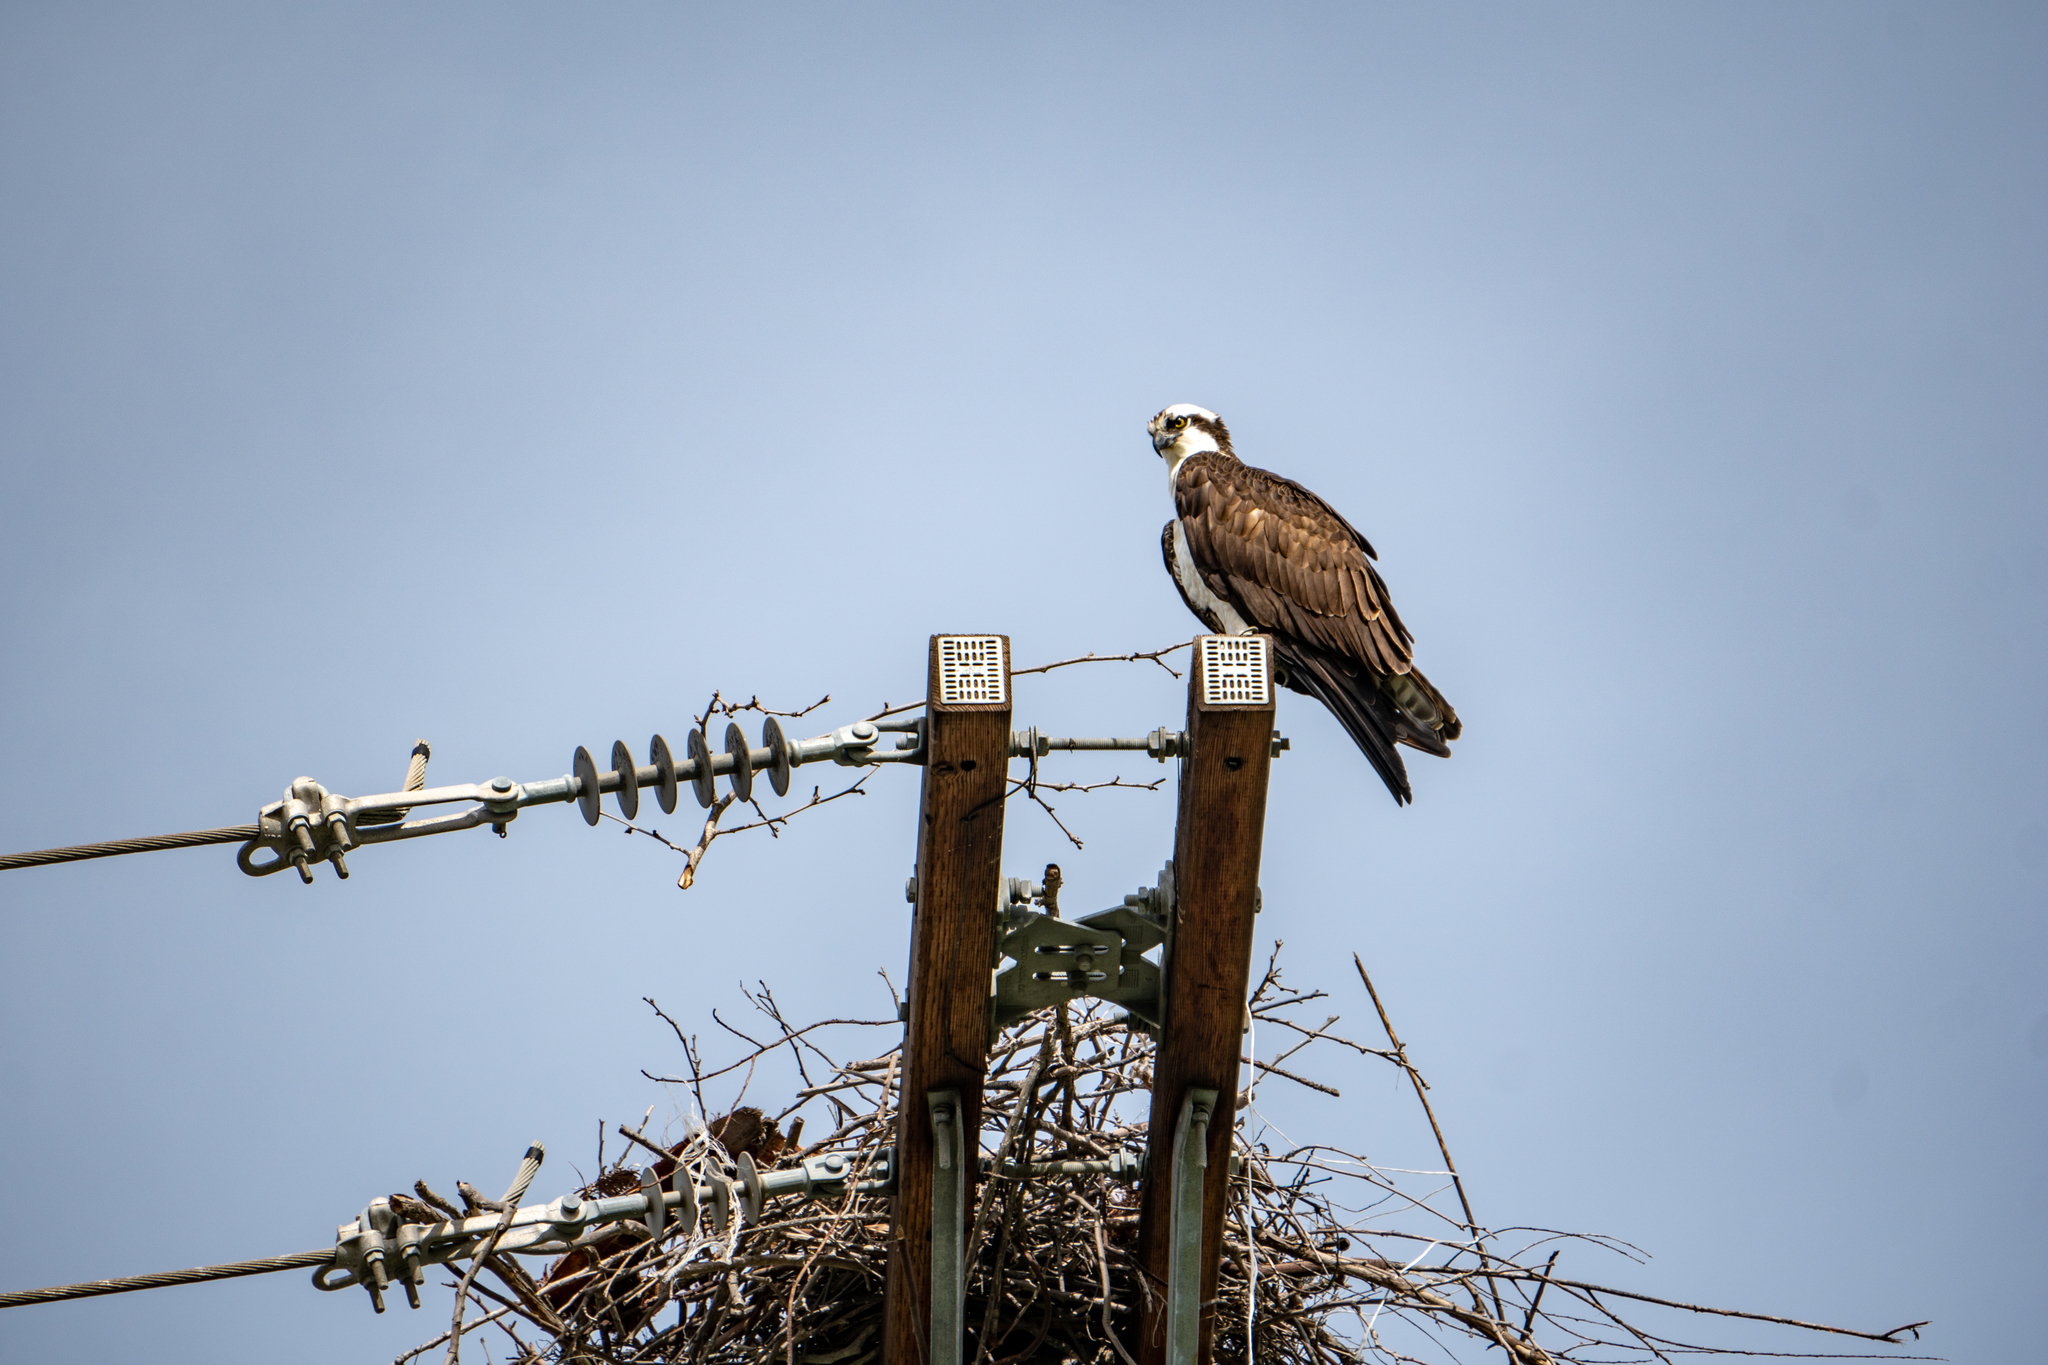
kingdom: Animalia
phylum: Chordata
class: Aves
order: Accipitriformes
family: Pandionidae
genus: Pandion
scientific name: Pandion haliaetus
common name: Osprey
